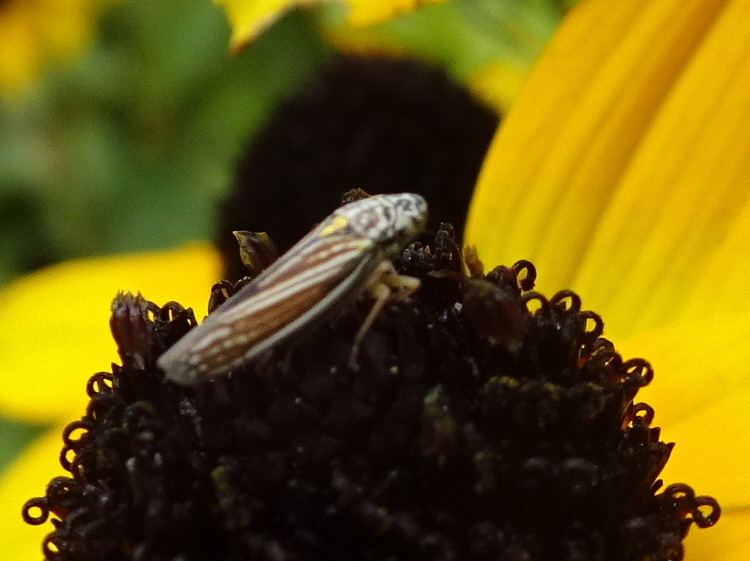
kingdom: Animalia
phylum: Arthropoda
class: Insecta
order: Hemiptera
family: Cicadellidae
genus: Neokolla
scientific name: Neokolla hieroglyphica
